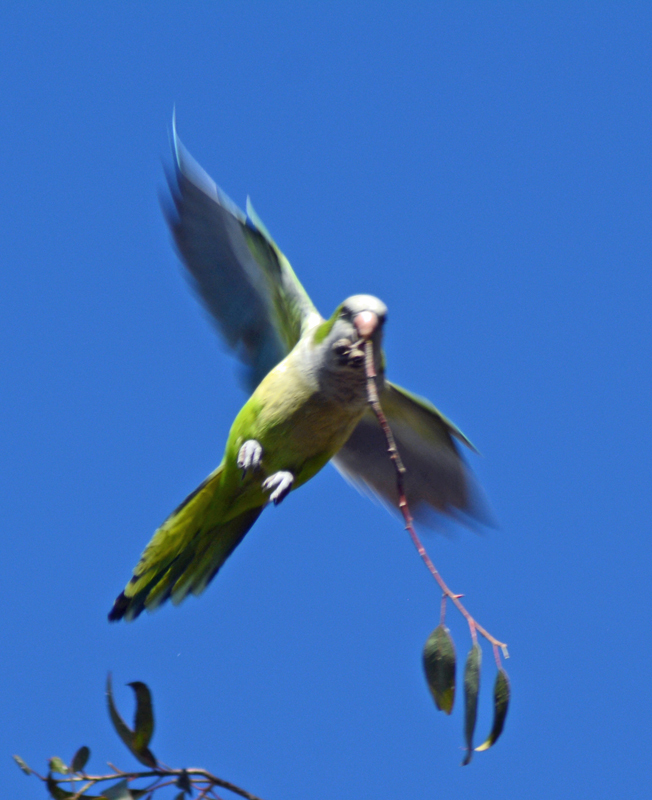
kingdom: Animalia
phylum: Chordata
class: Aves
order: Psittaciformes
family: Psittacidae
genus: Myiopsitta
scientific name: Myiopsitta monachus
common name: Monk parakeet
